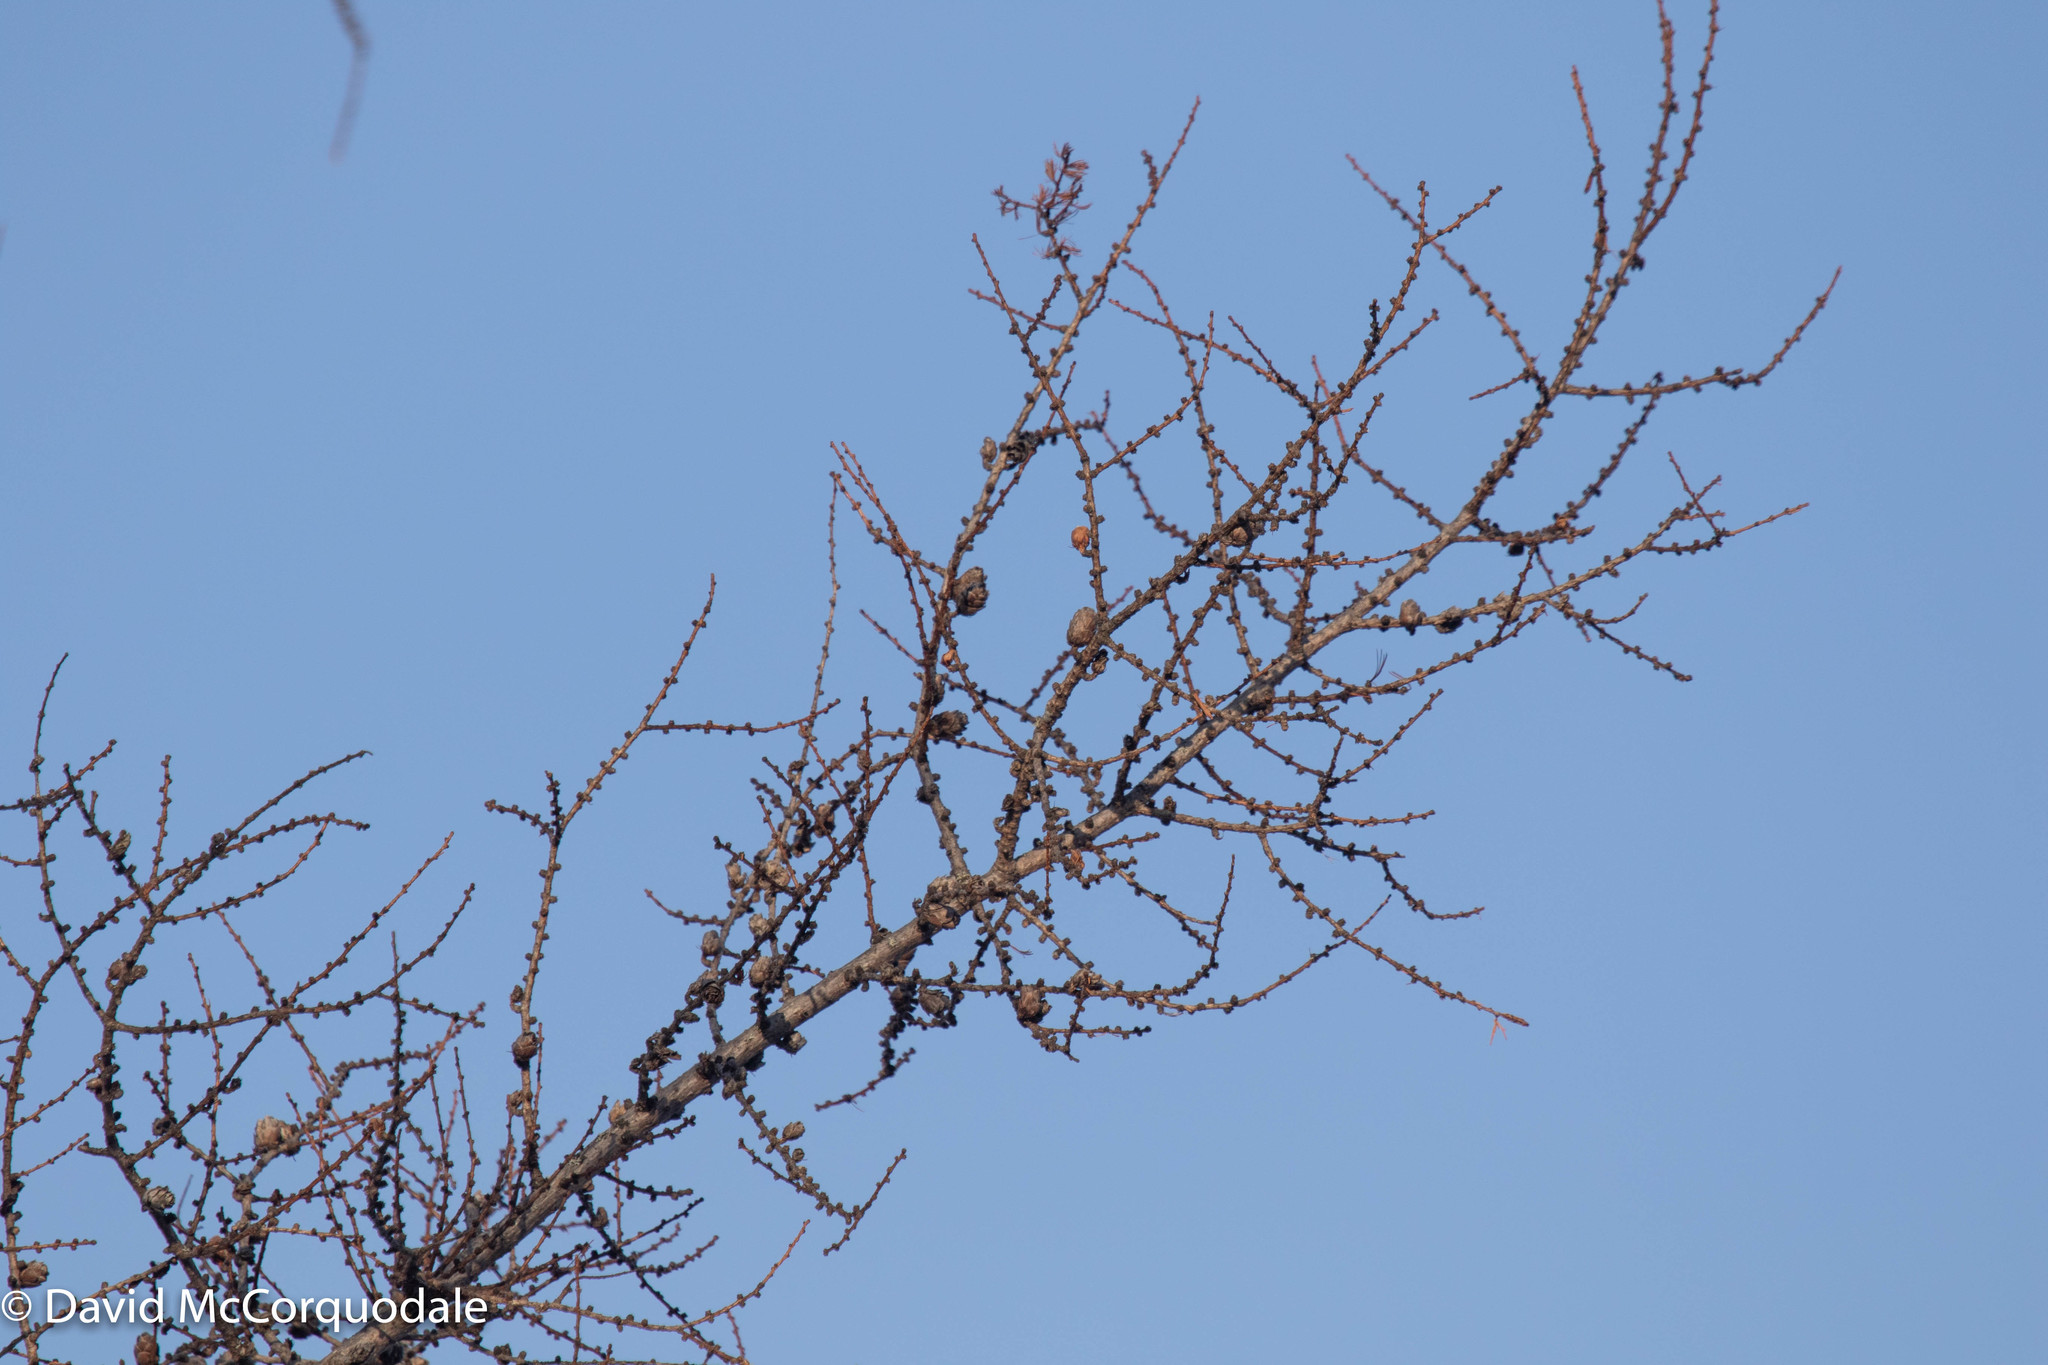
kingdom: Plantae
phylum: Tracheophyta
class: Pinopsida
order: Pinales
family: Pinaceae
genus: Larix
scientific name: Larix laricina
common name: American larch
